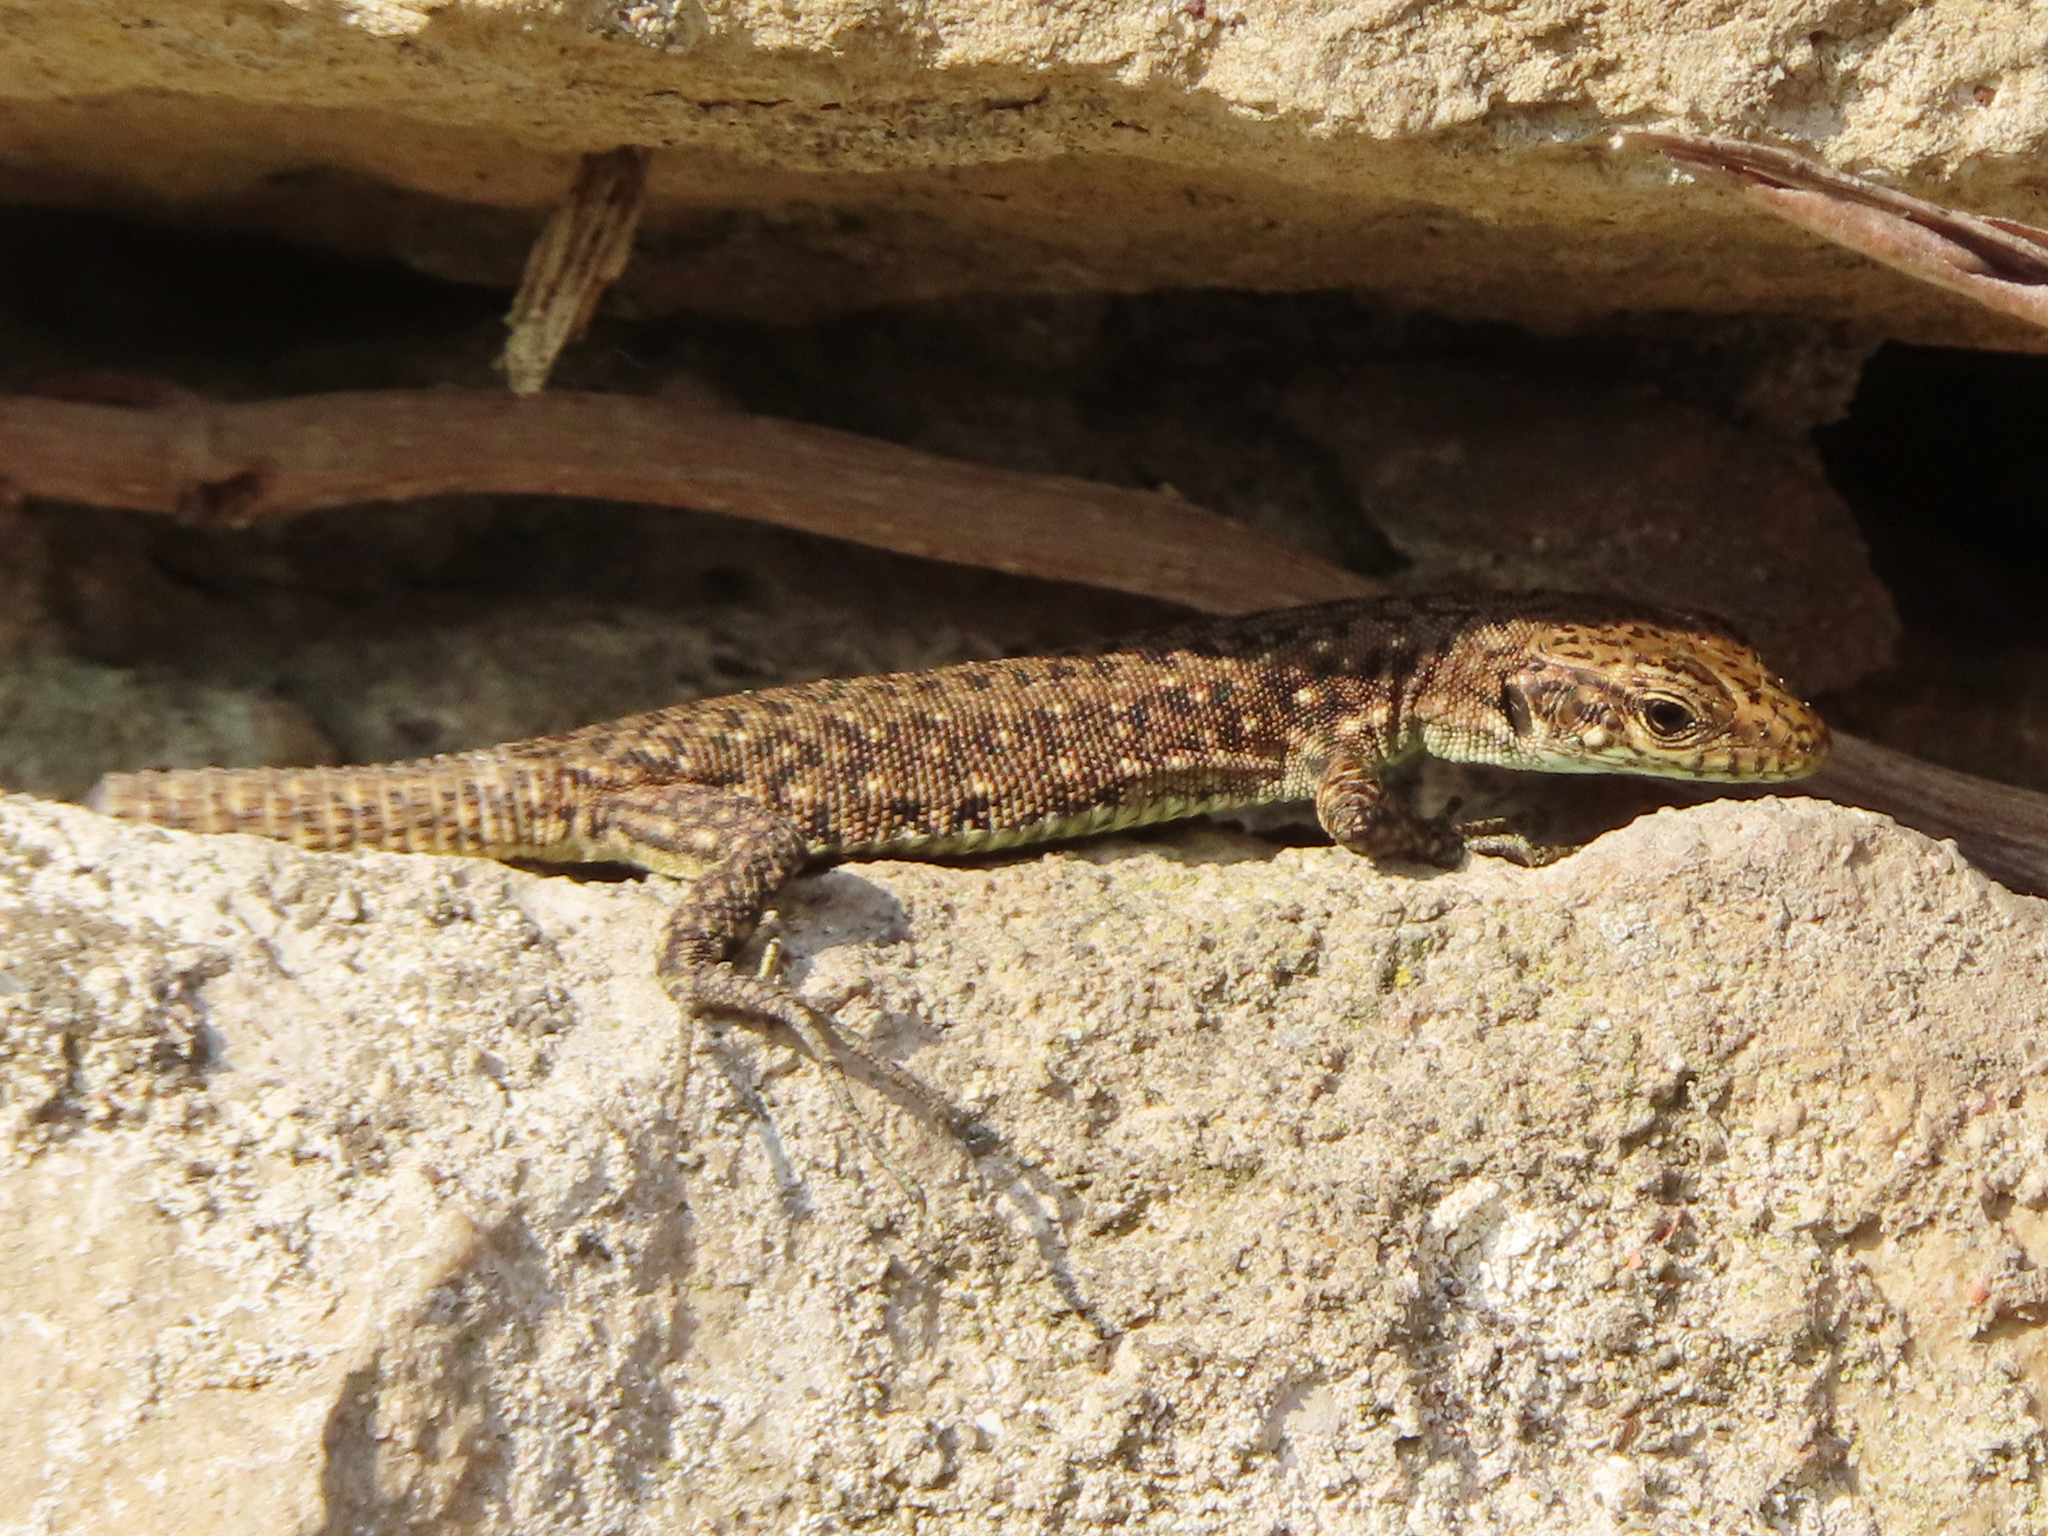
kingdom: Animalia
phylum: Chordata
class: Squamata
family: Lacertidae
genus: Darevskia
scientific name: Darevskia rudis
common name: Spiny-tailed lizard
